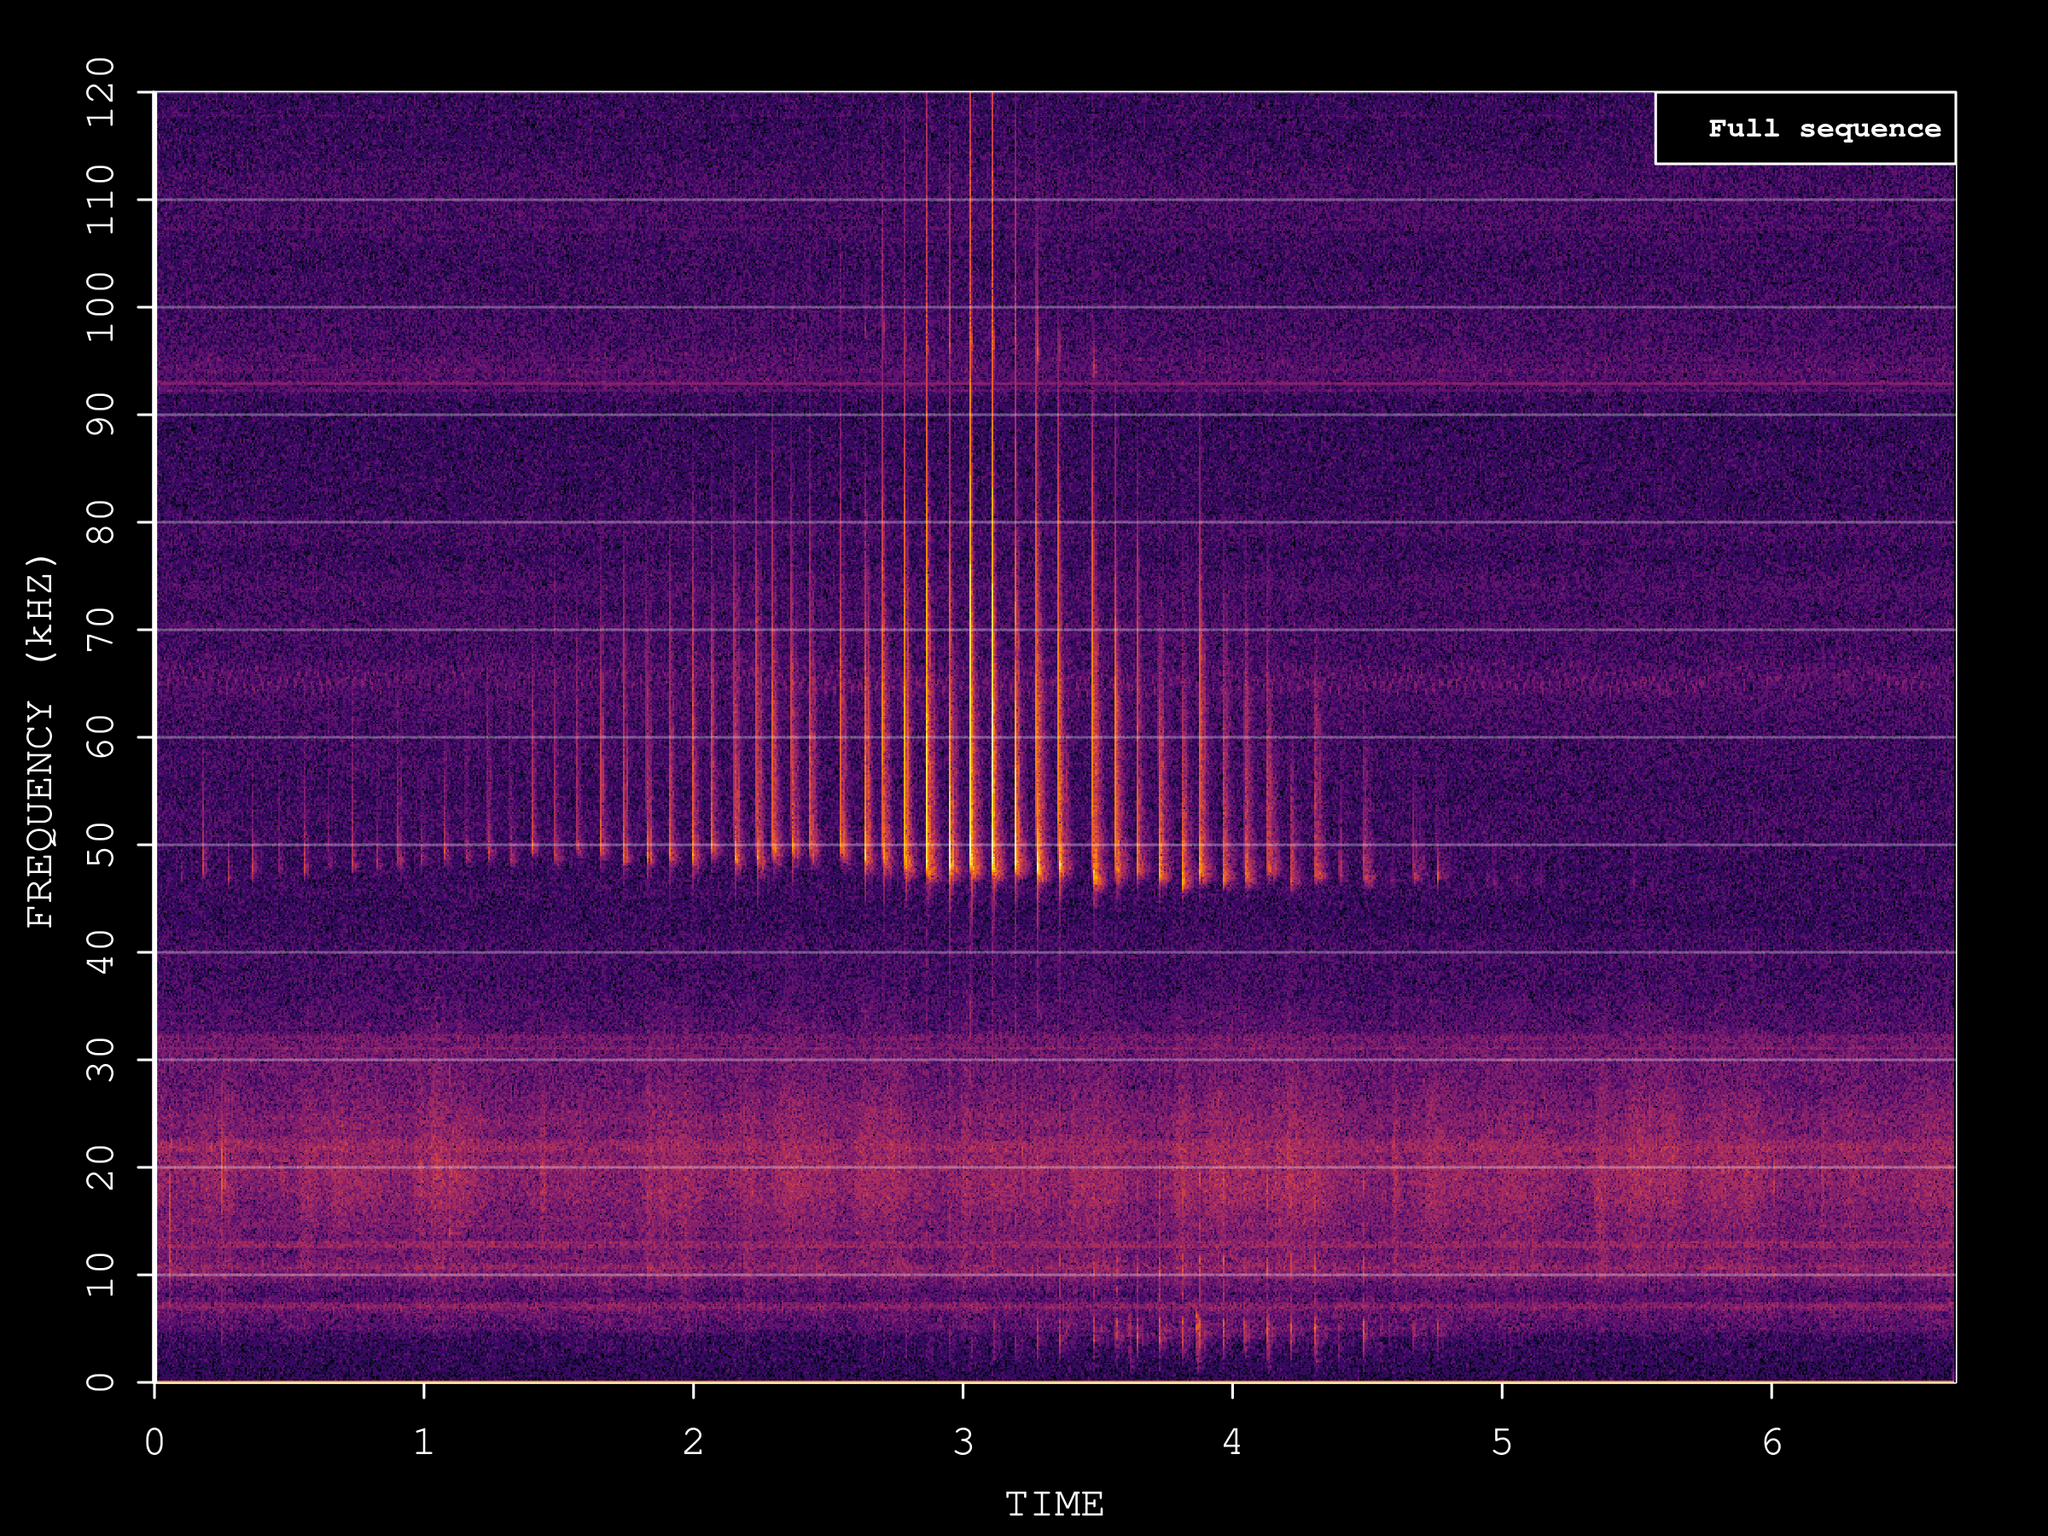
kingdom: Animalia
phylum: Chordata
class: Mammalia
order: Chiroptera
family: Vespertilionidae
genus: Pipistrellus
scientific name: Pipistrellus pipistrellus
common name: Common pipistrelle
